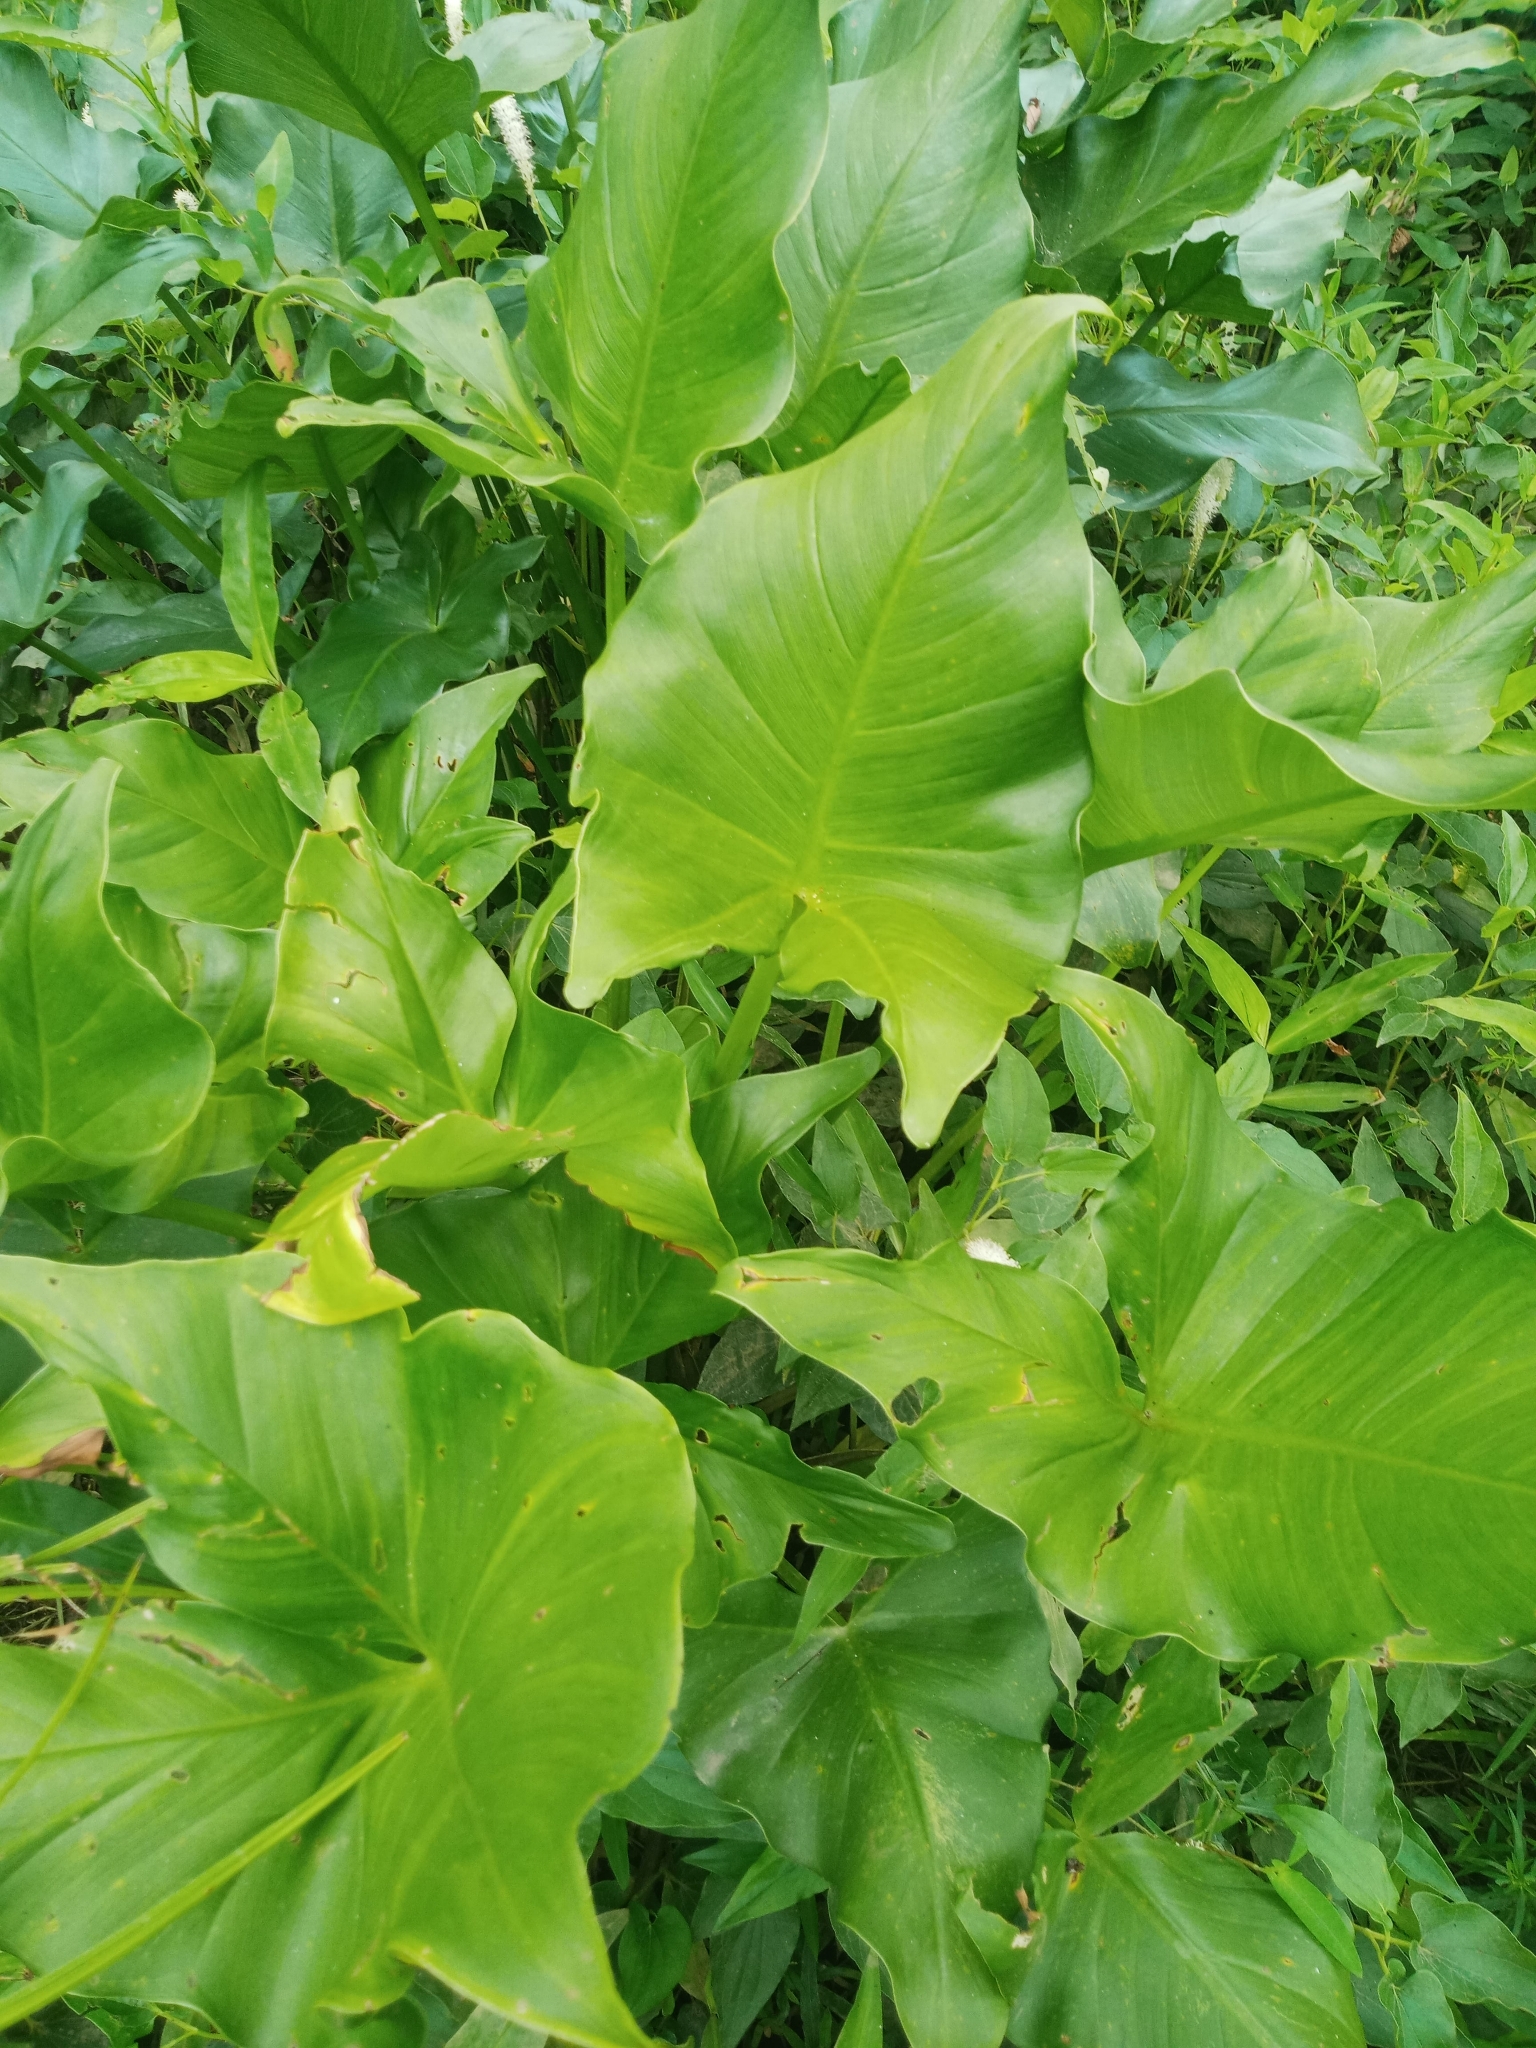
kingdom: Plantae
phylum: Tracheophyta
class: Liliopsida
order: Alismatales
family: Araceae
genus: Peltandra
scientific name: Peltandra virginica
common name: Arrow arum
